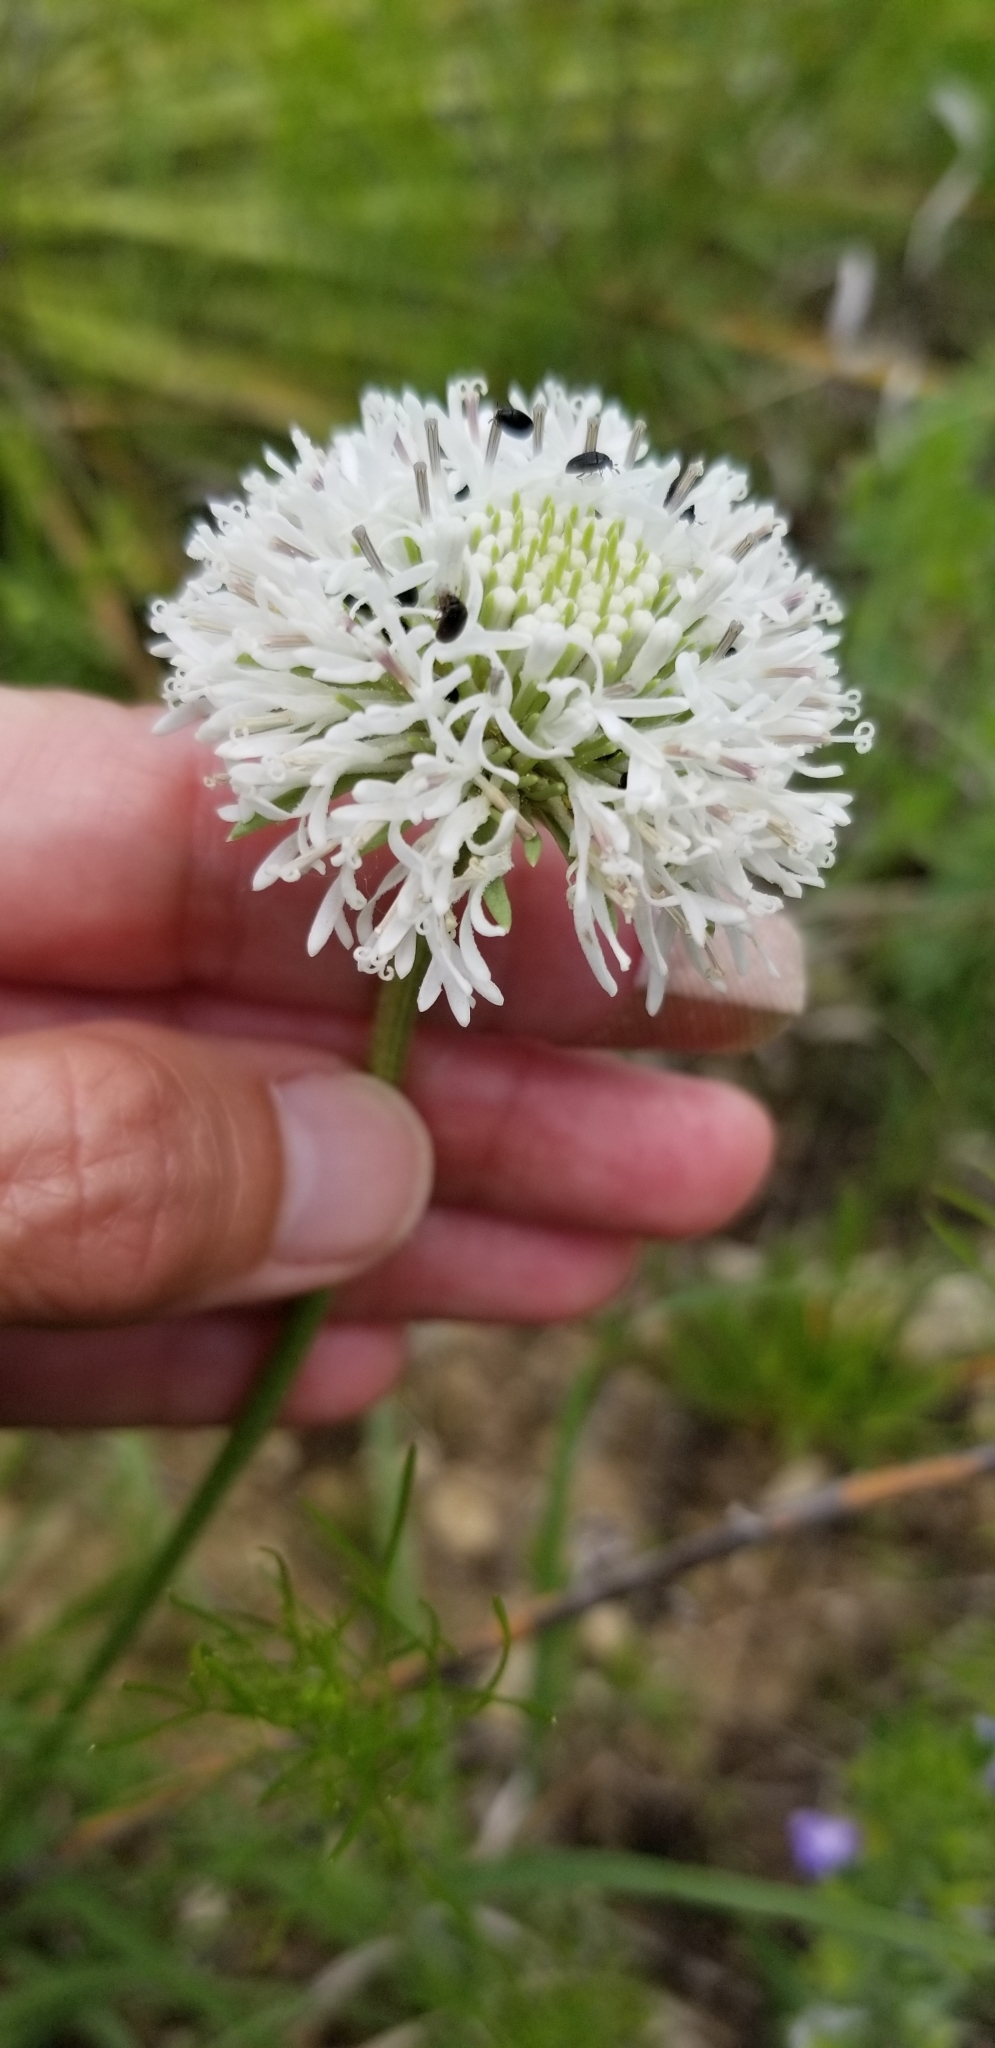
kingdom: Plantae
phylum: Tracheophyta
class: Magnoliopsida
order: Asterales
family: Asteraceae
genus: Marshallia
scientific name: Marshallia caespitosa
